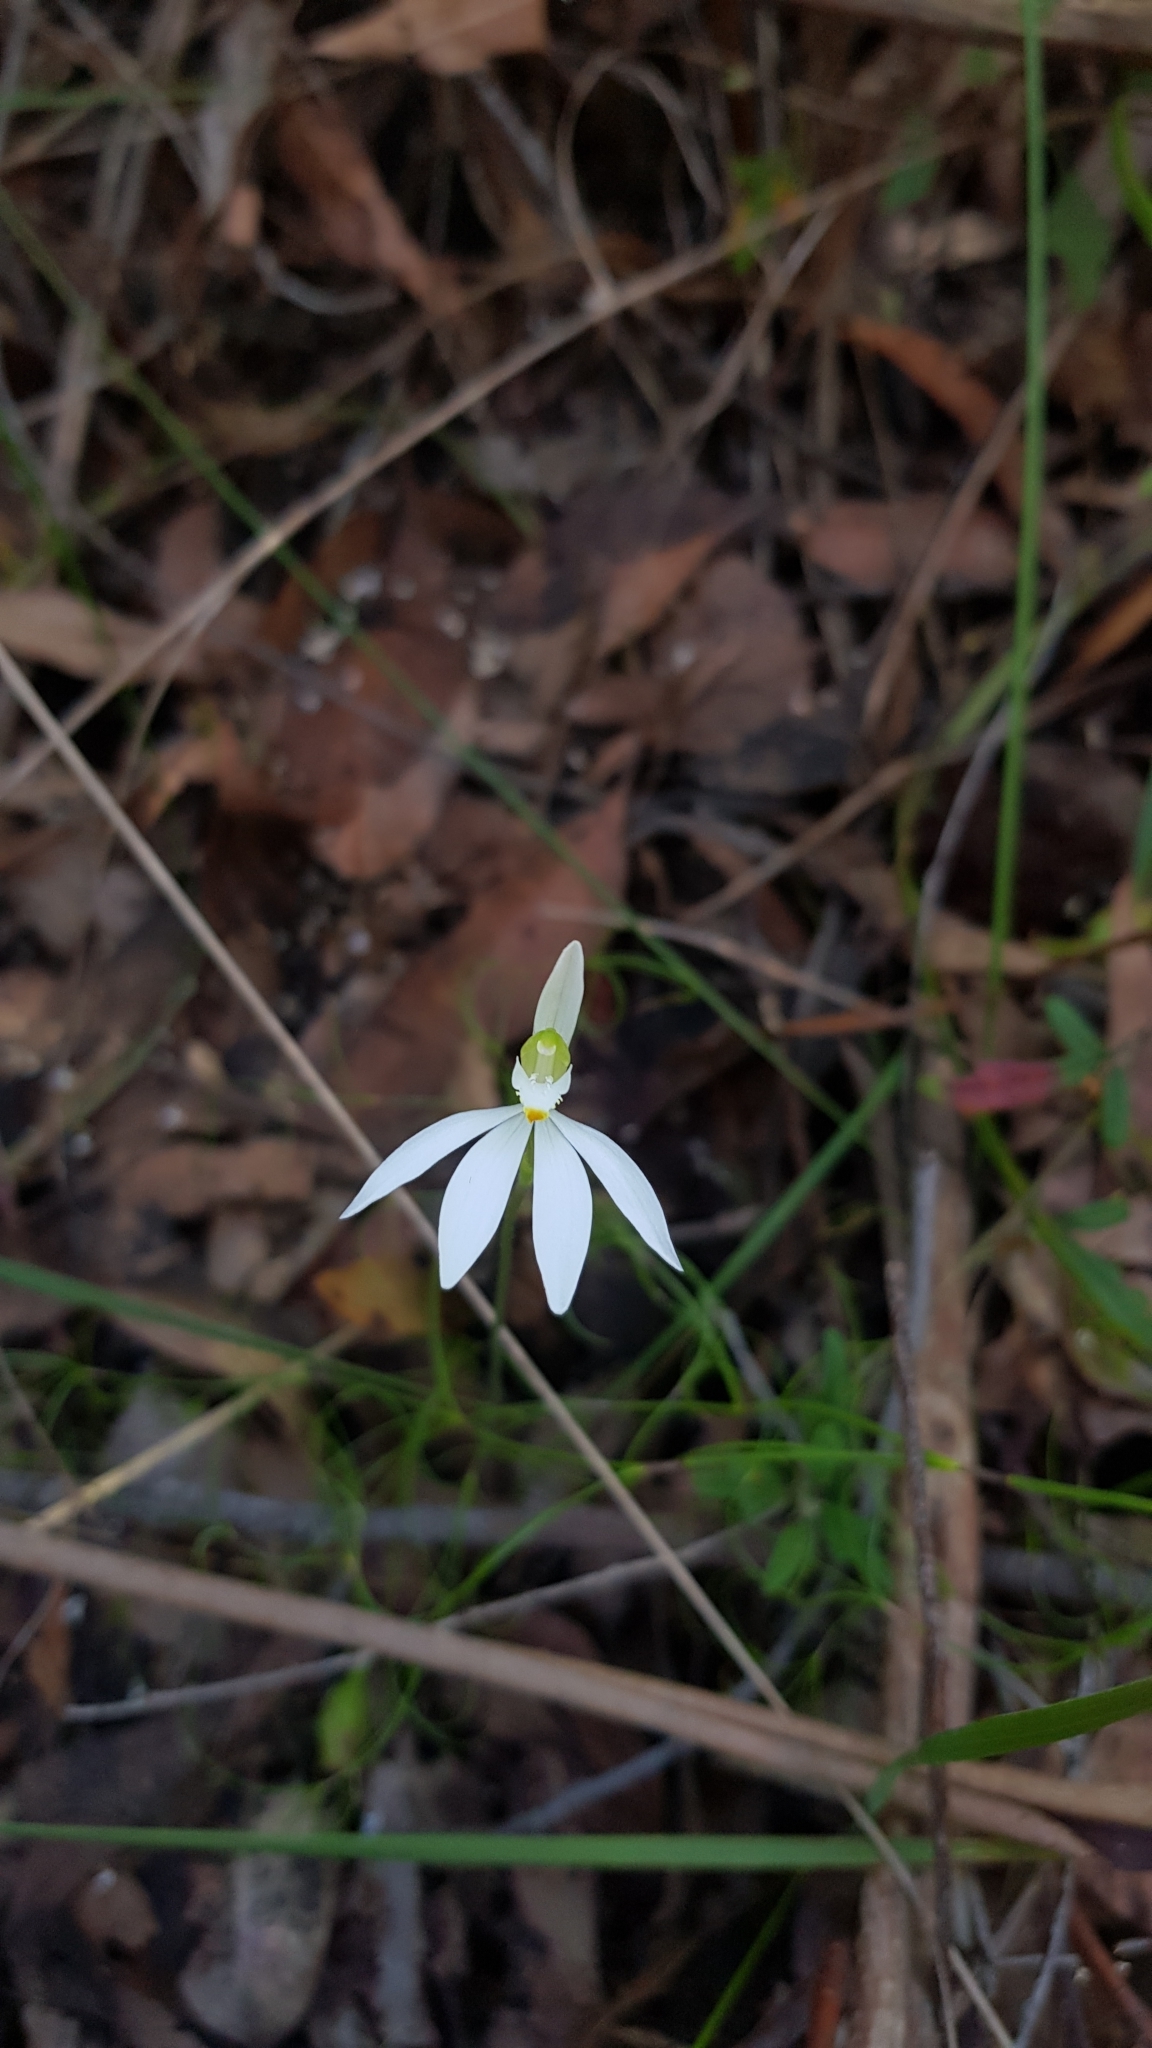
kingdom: Plantae
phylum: Tracheophyta
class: Liliopsida
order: Asparagales
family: Orchidaceae
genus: Caladenia
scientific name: Caladenia catenata
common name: White caladenia
